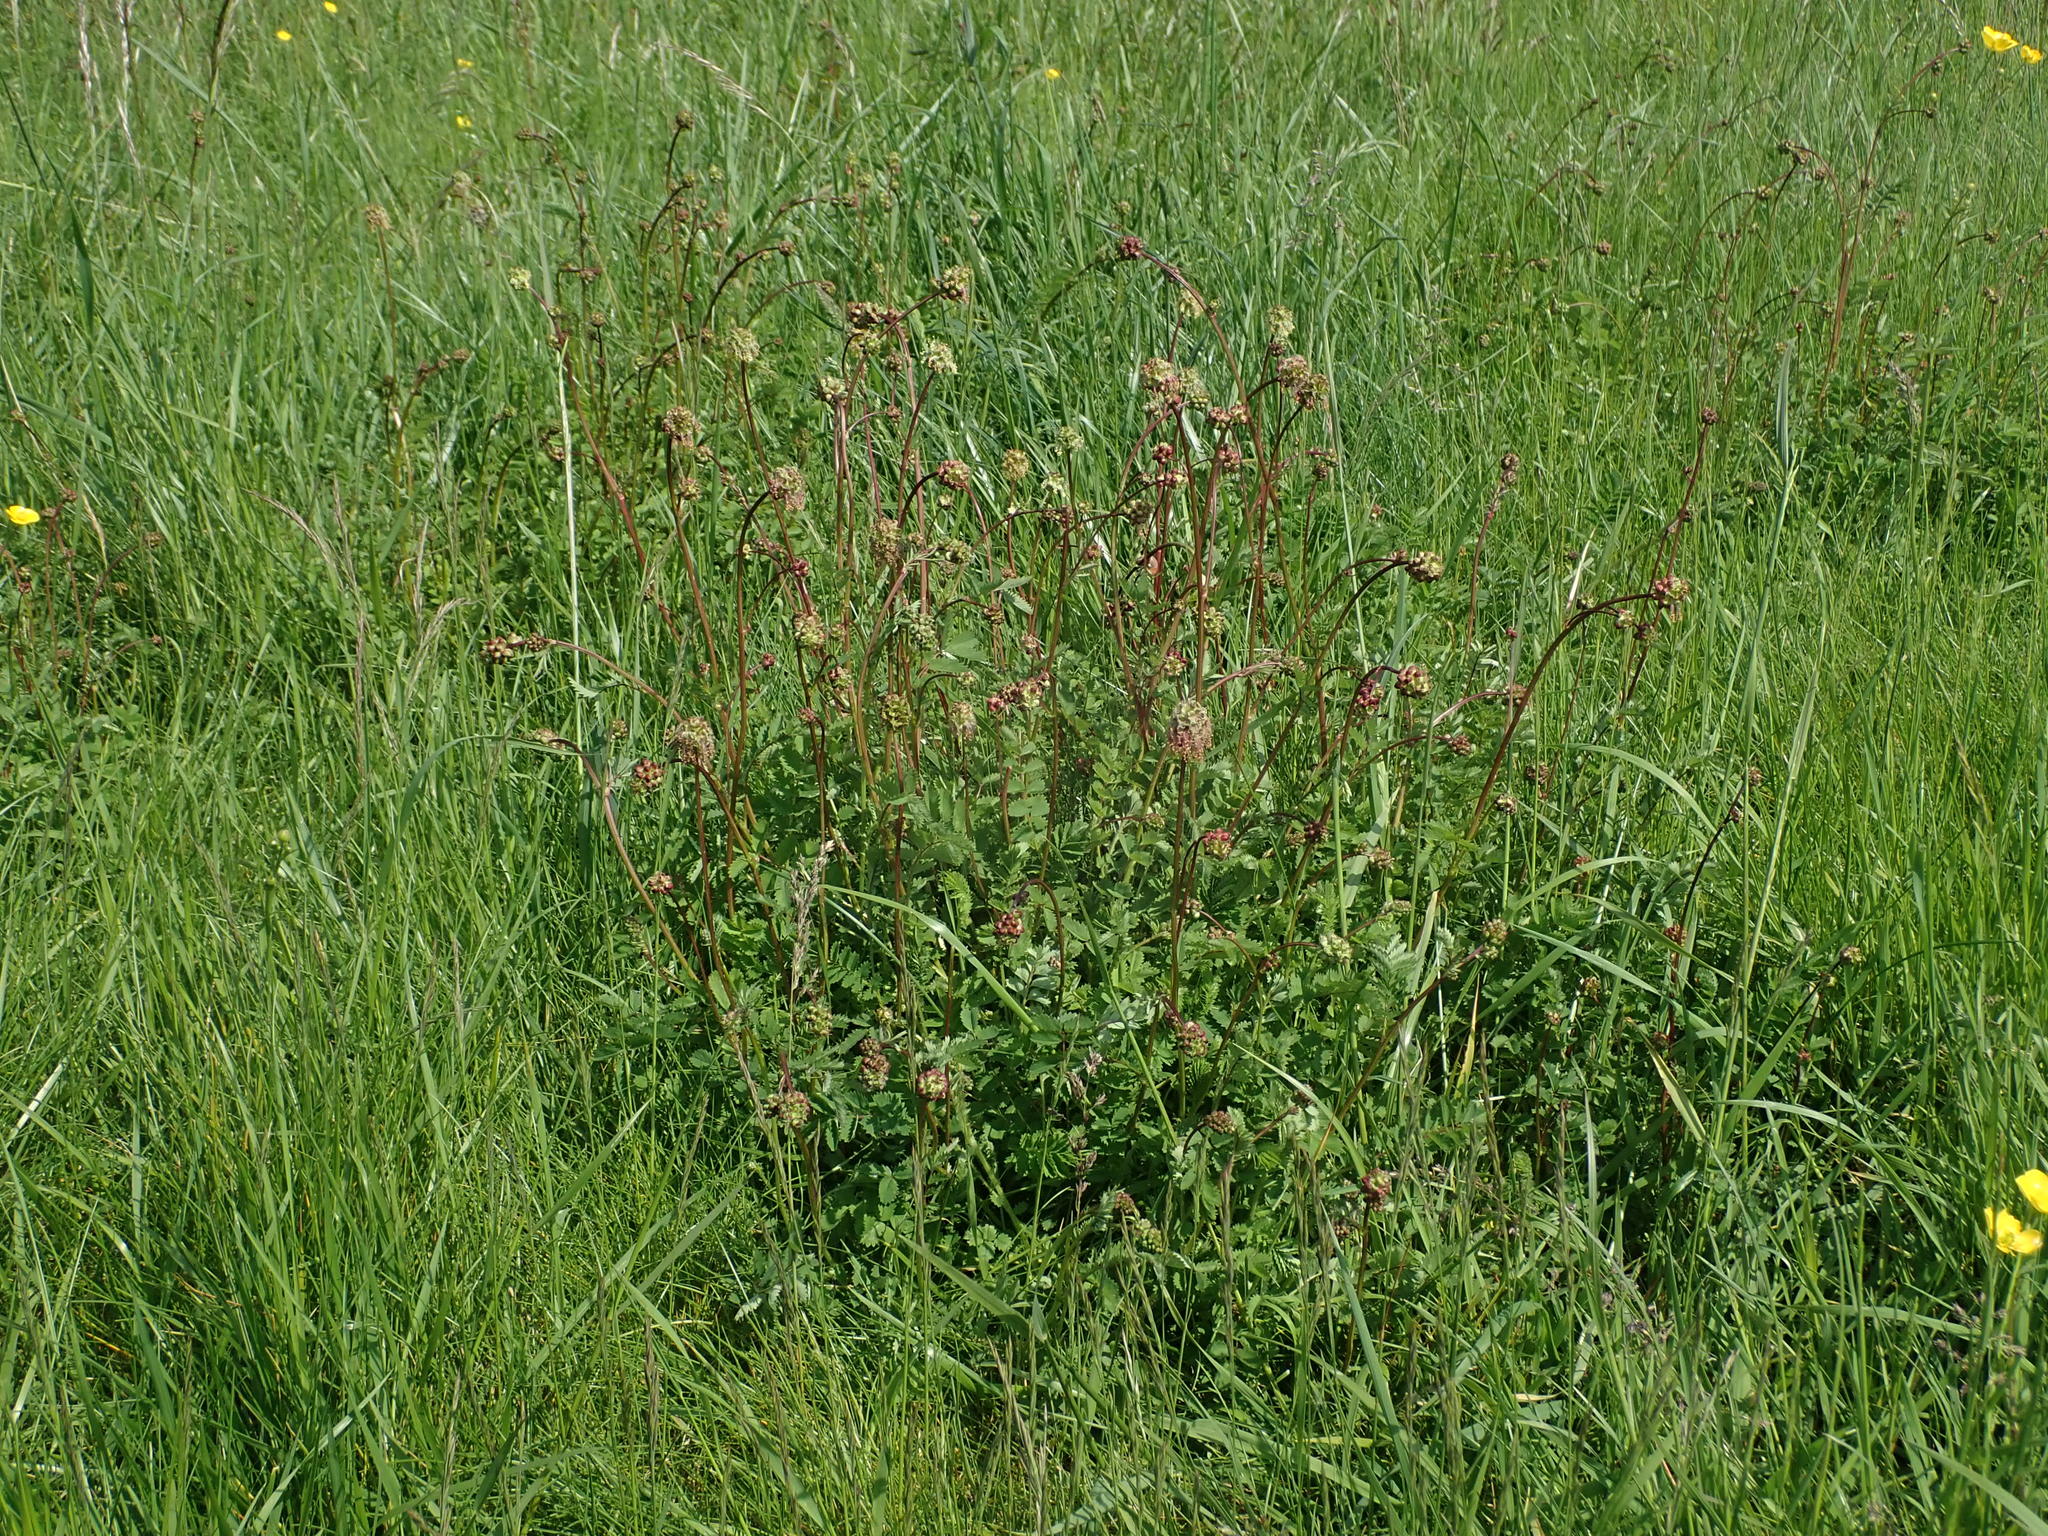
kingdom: Plantae
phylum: Tracheophyta
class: Magnoliopsida
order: Rosales
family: Rosaceae
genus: Poterium
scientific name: Poterium sanguisorba
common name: Salad burnet
